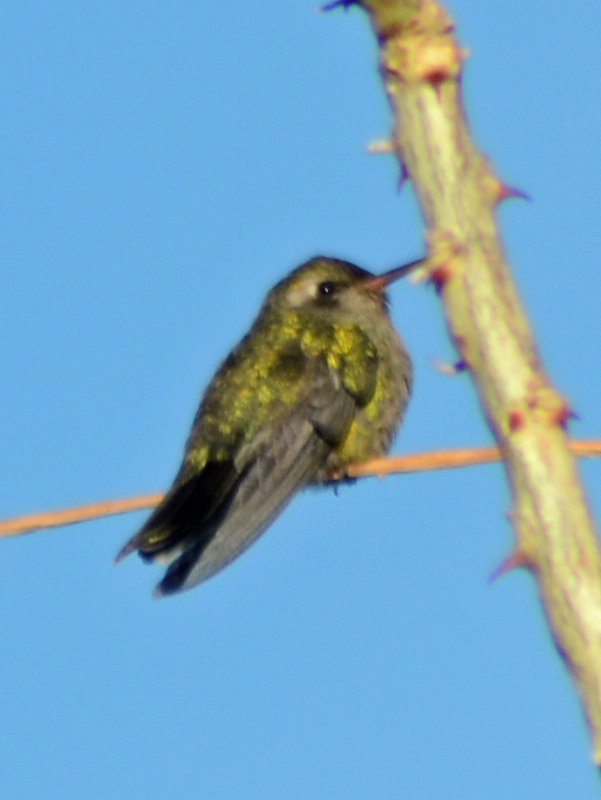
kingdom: Animalia
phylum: Chordata
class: Aves
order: Apodiformes
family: Trochilidae
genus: Cynanthus
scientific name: Cynanthus latirostris
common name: Broad-billed hummingbird
